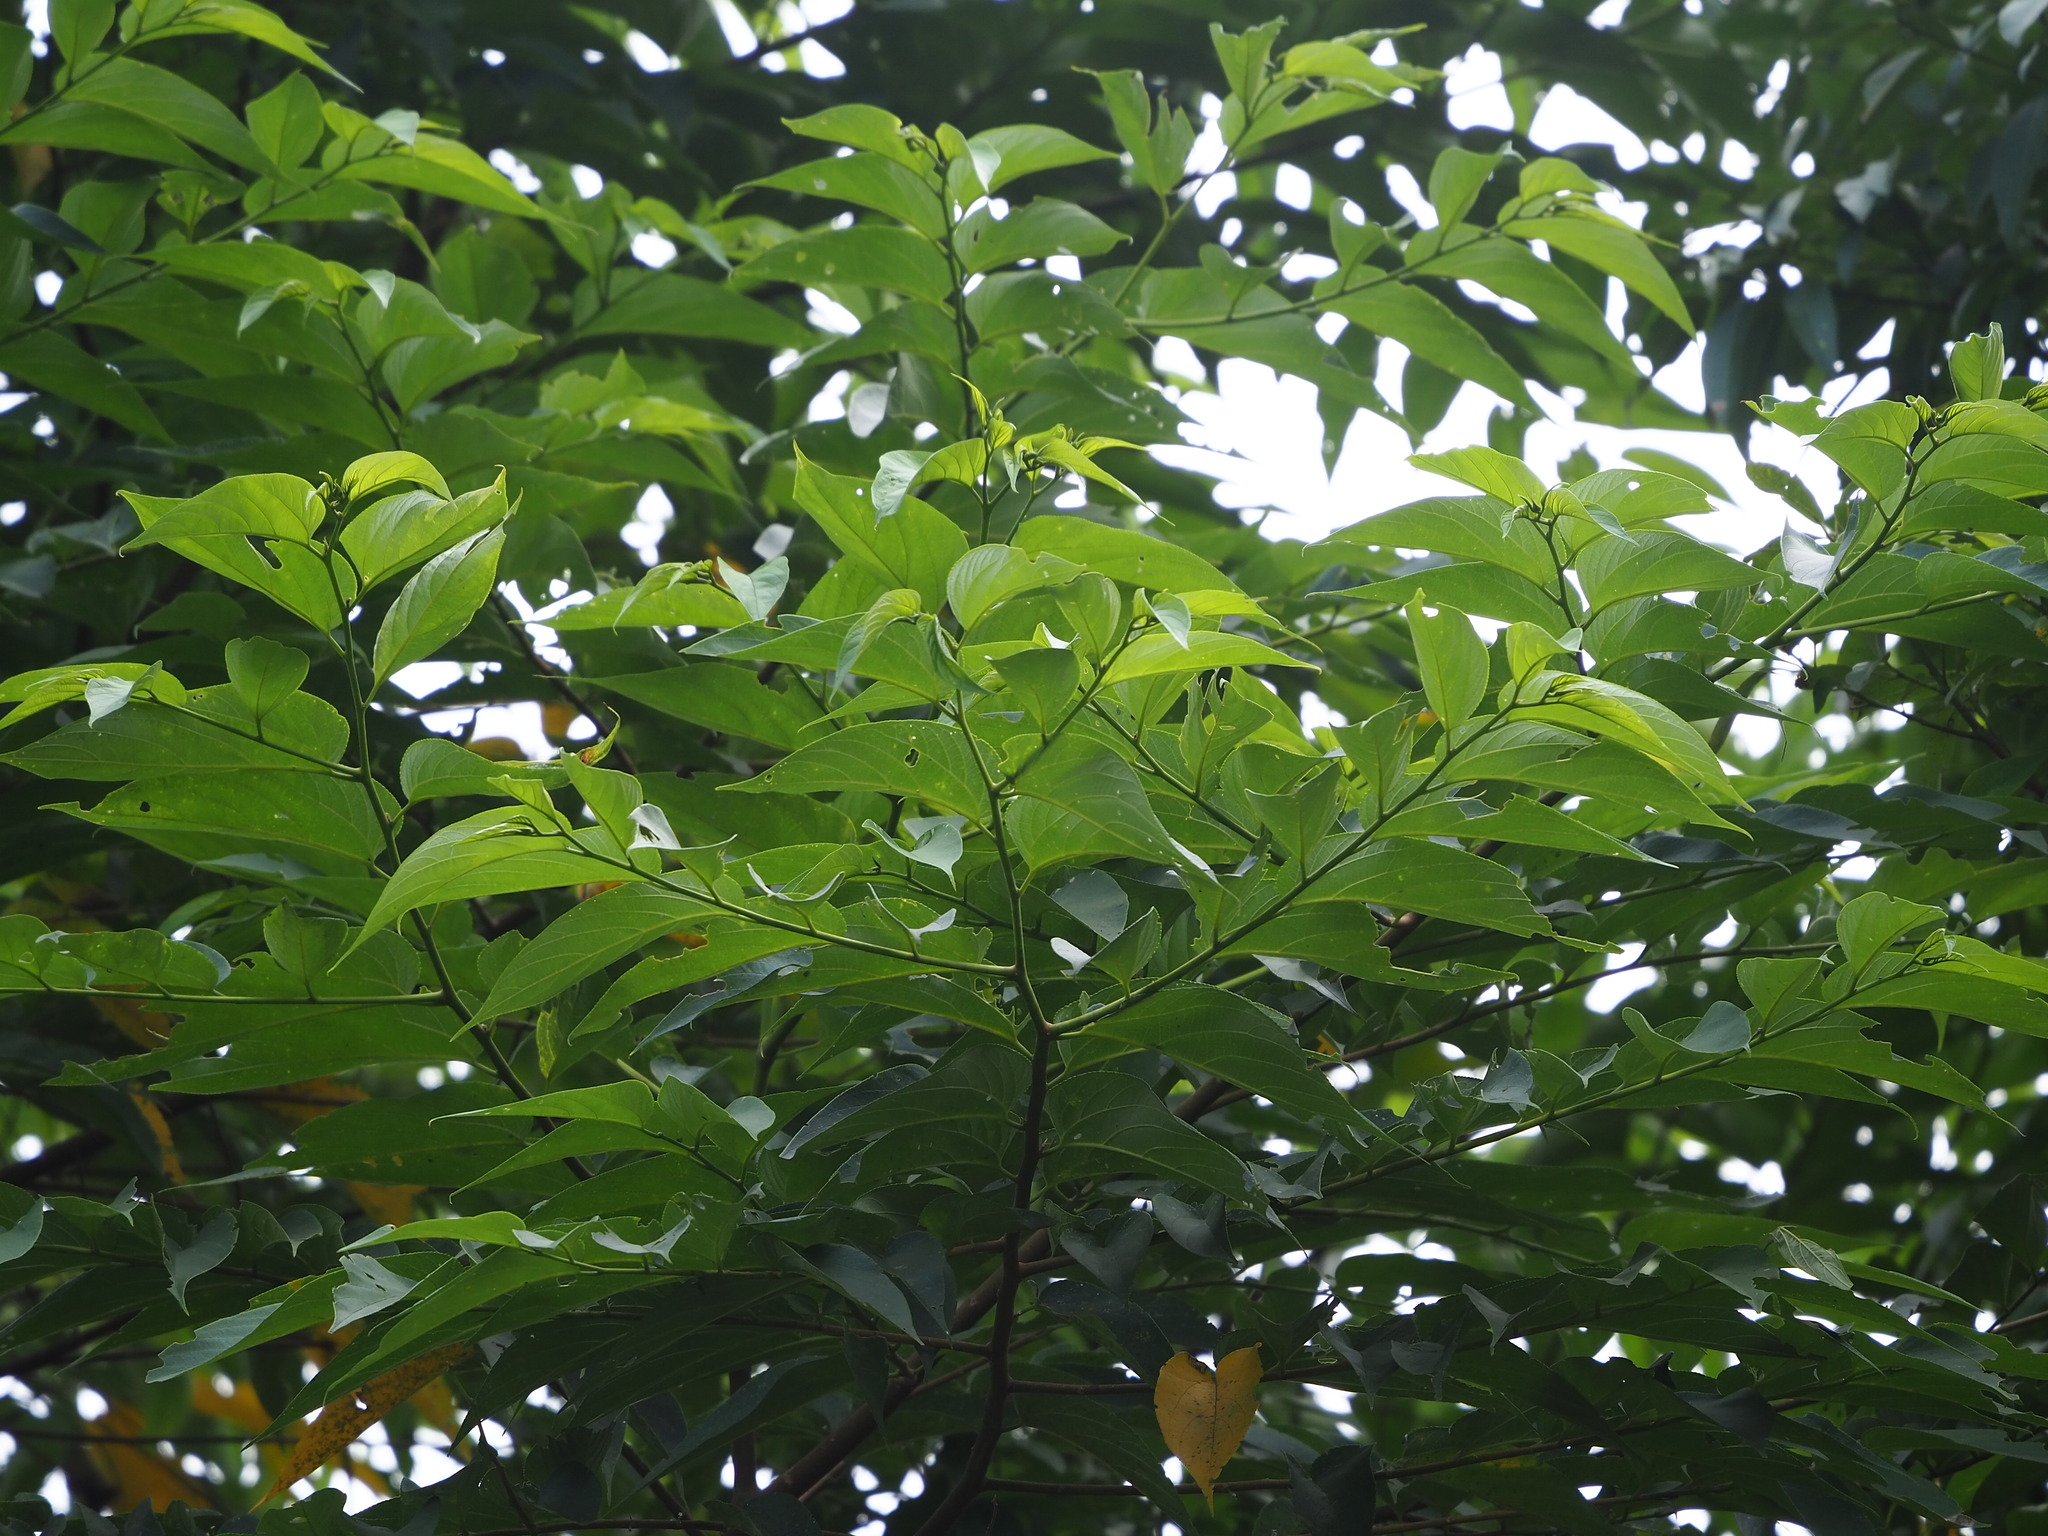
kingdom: Plantae
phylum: Tracheophyta
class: Magnoliopsida
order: Rosales
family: Cannabaceae
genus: Trema
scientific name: Trema orientale
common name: Indian charcoal tree
